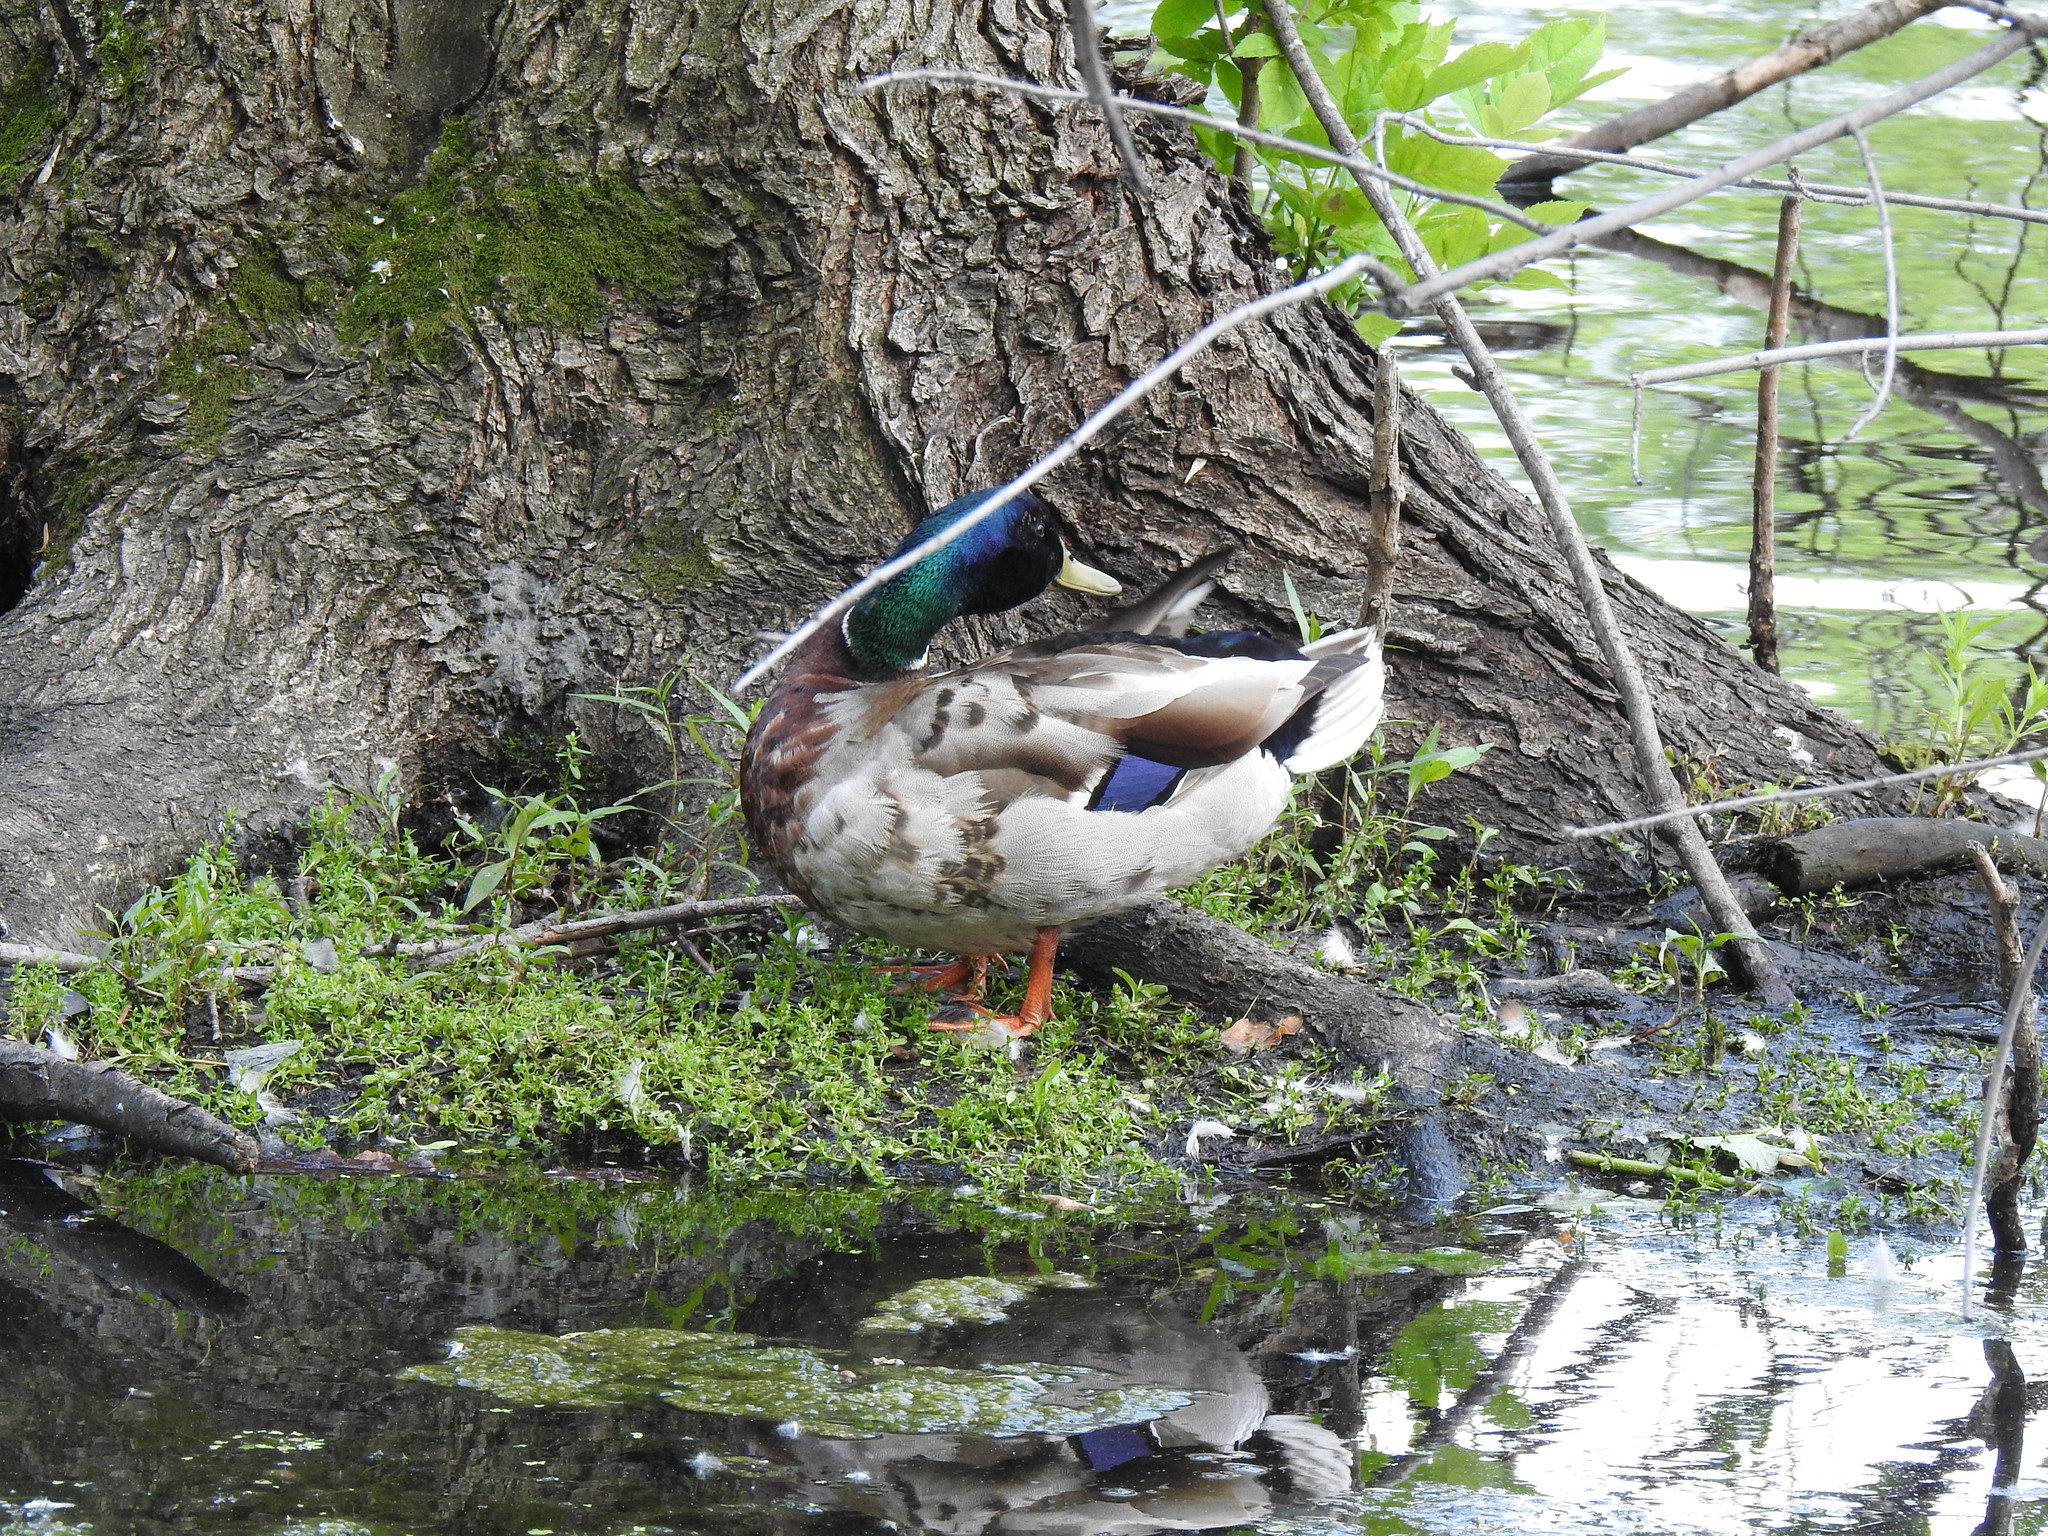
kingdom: Animalia
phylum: Chordata
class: Aves
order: Anseriformes
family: Anatidae
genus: Anas
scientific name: Anas platyrhynchos
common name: Mallard
